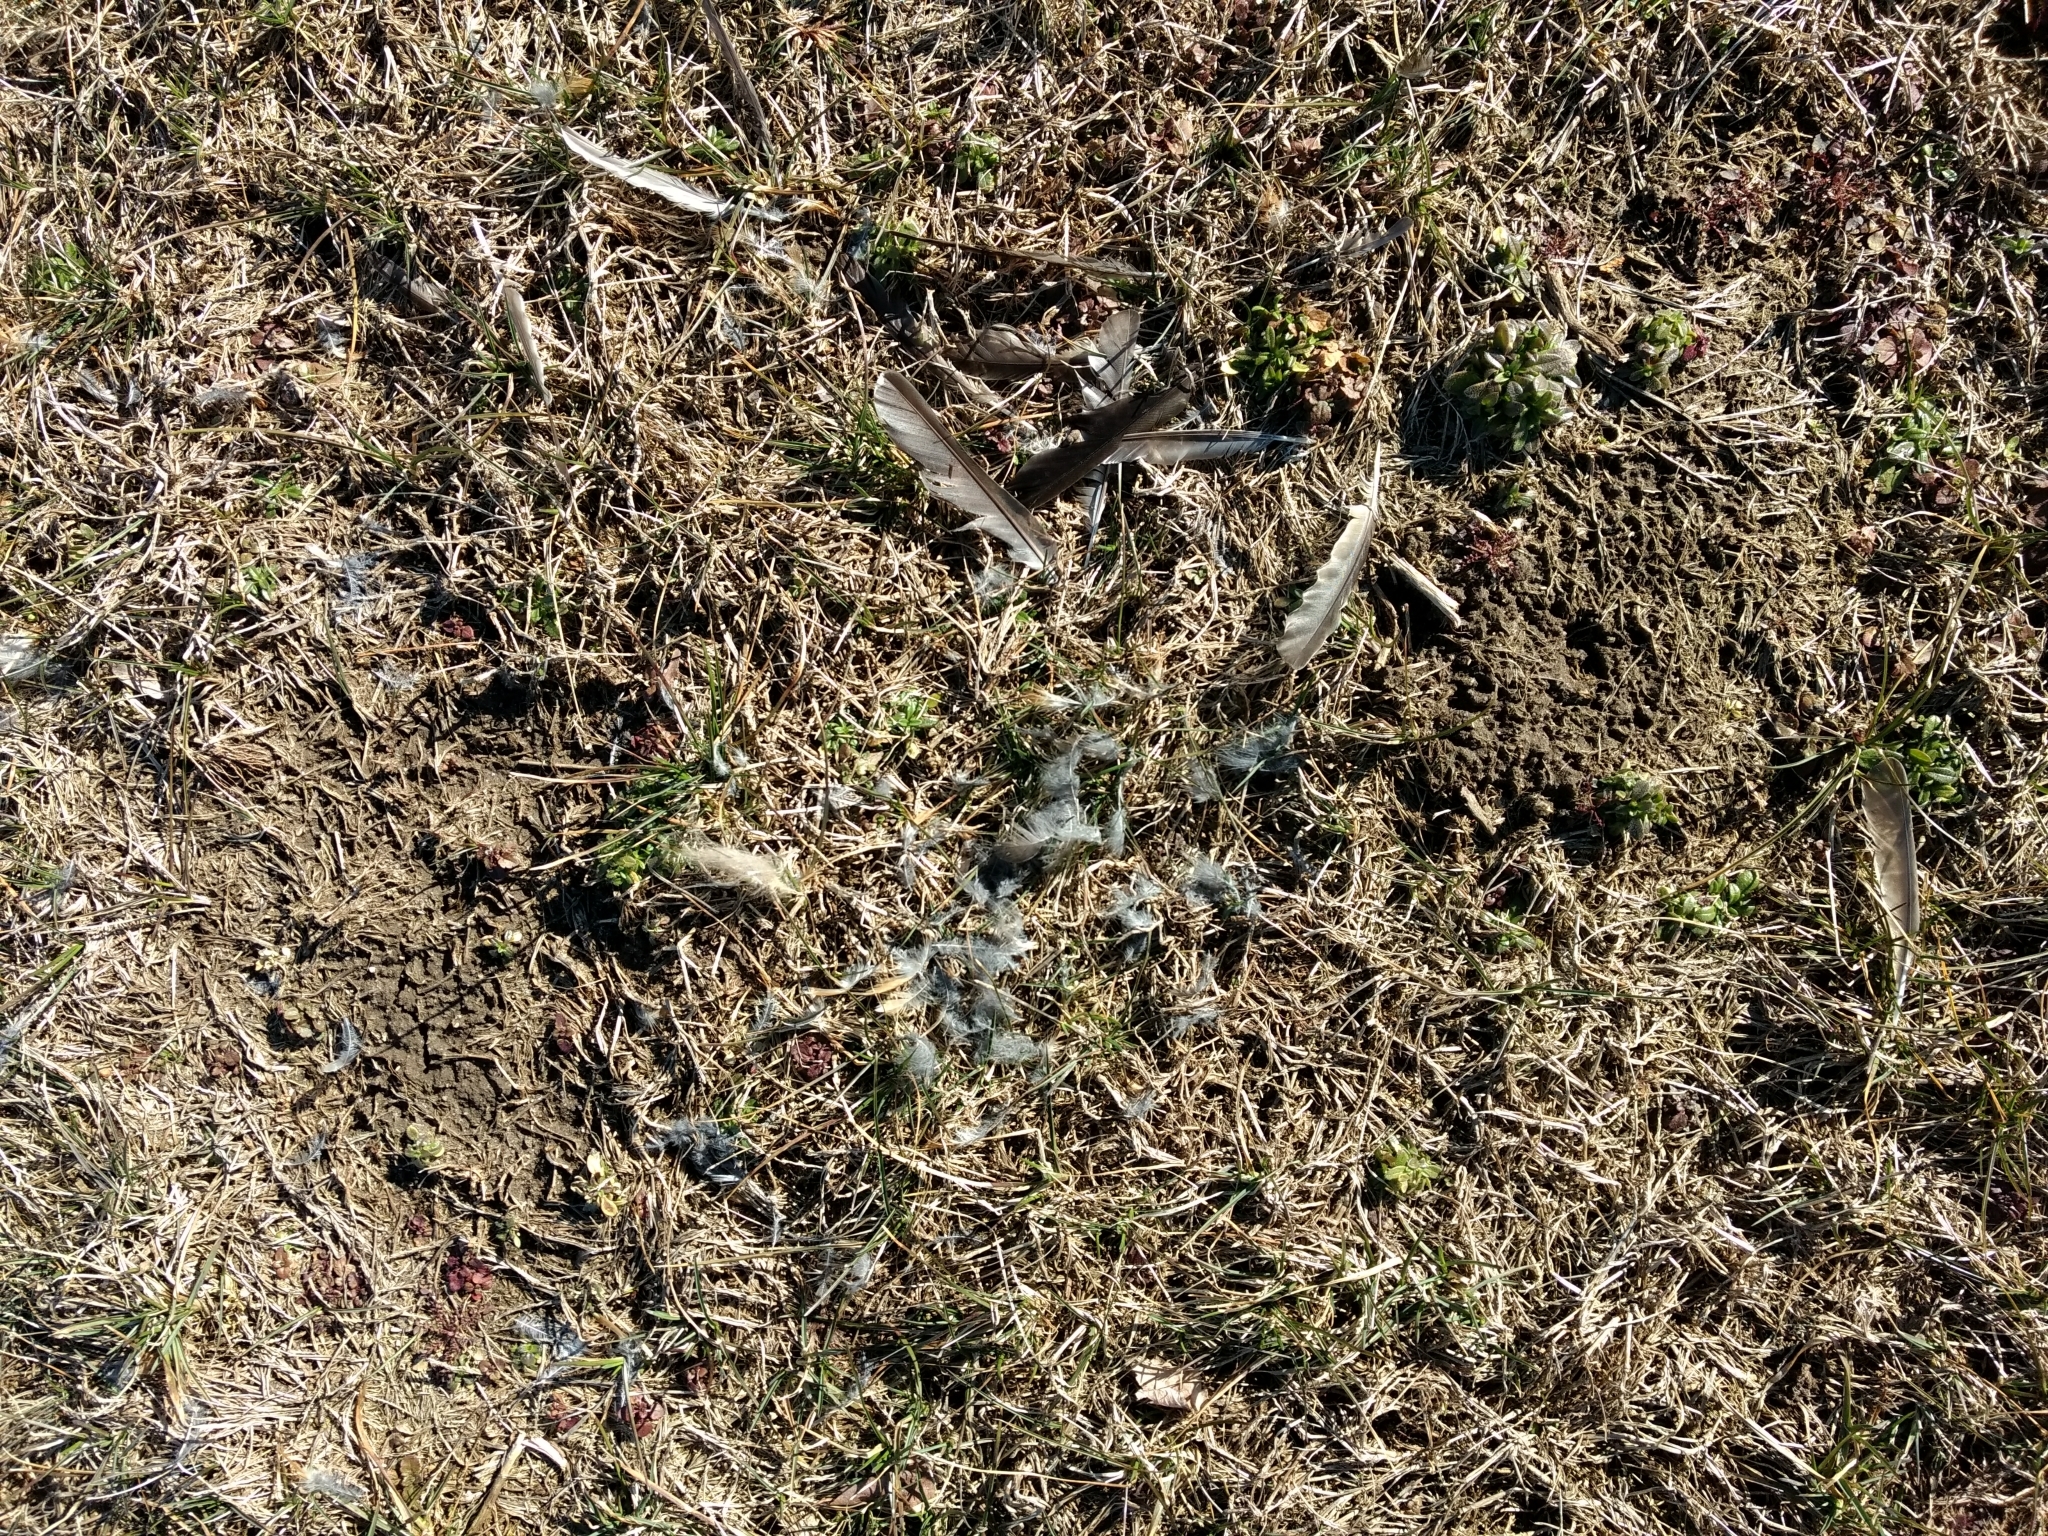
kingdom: Animalia
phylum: Chordata
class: Aves
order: Passeriformes
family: Turdidae
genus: Turdus
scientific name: Turdus migratorius
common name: American robin
